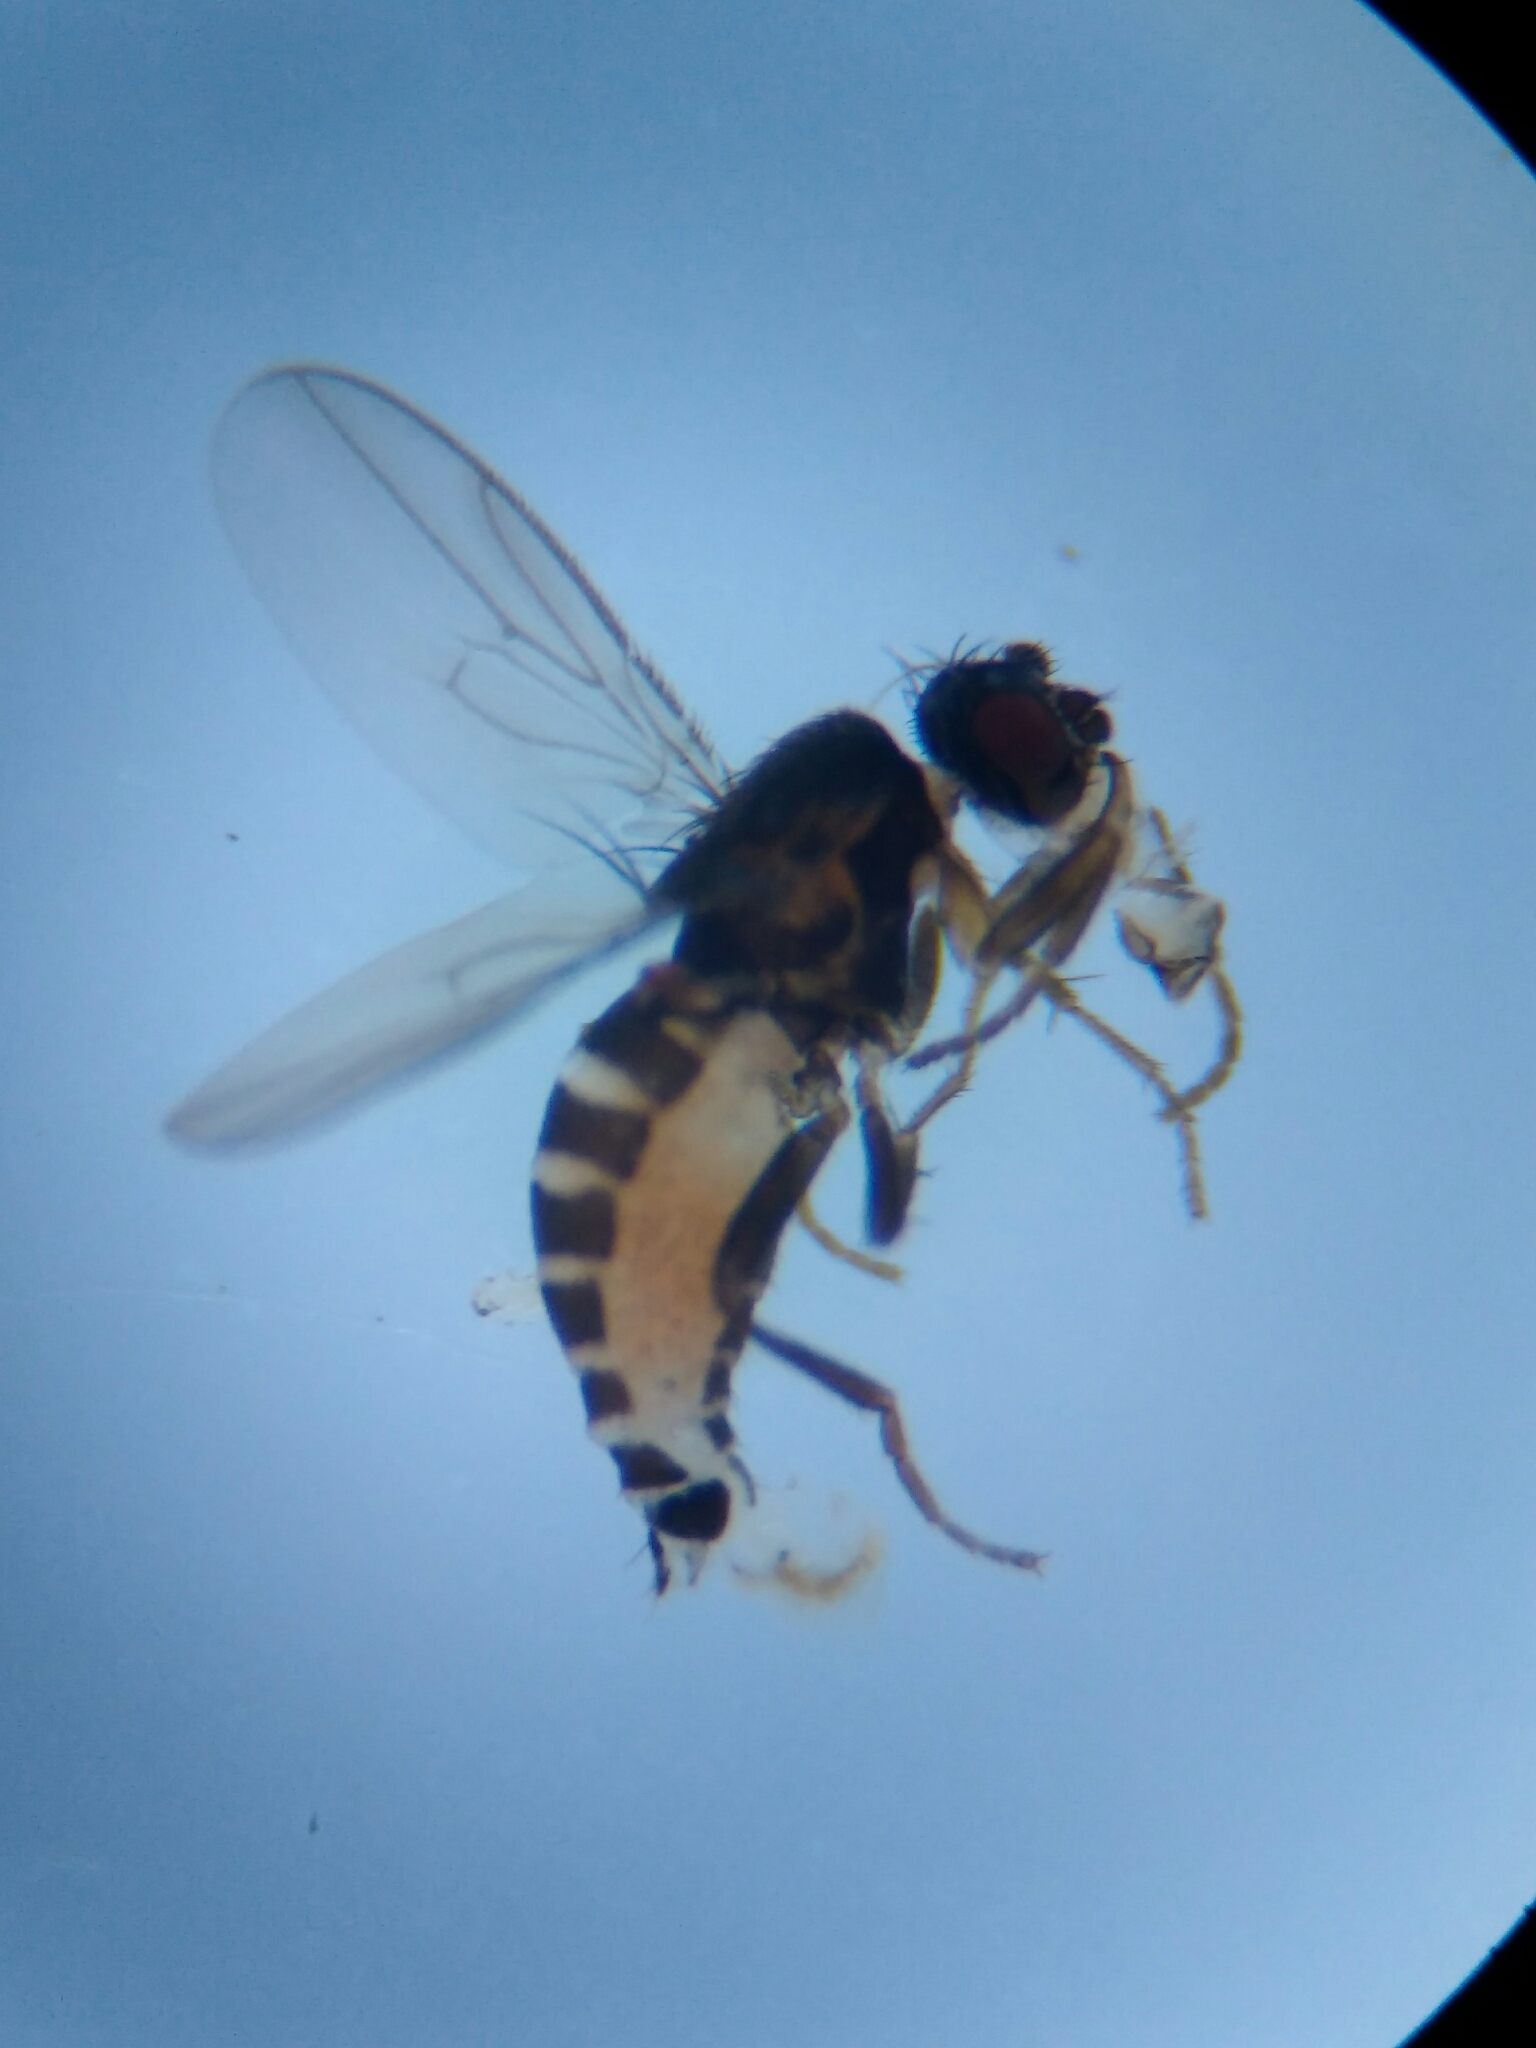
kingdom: Animalia
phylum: Arthropoda
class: Insecta
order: Diptera
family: Sphaeroceridae
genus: Pullimosina
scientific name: Pullimosina heteroneura
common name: Small dung fly
